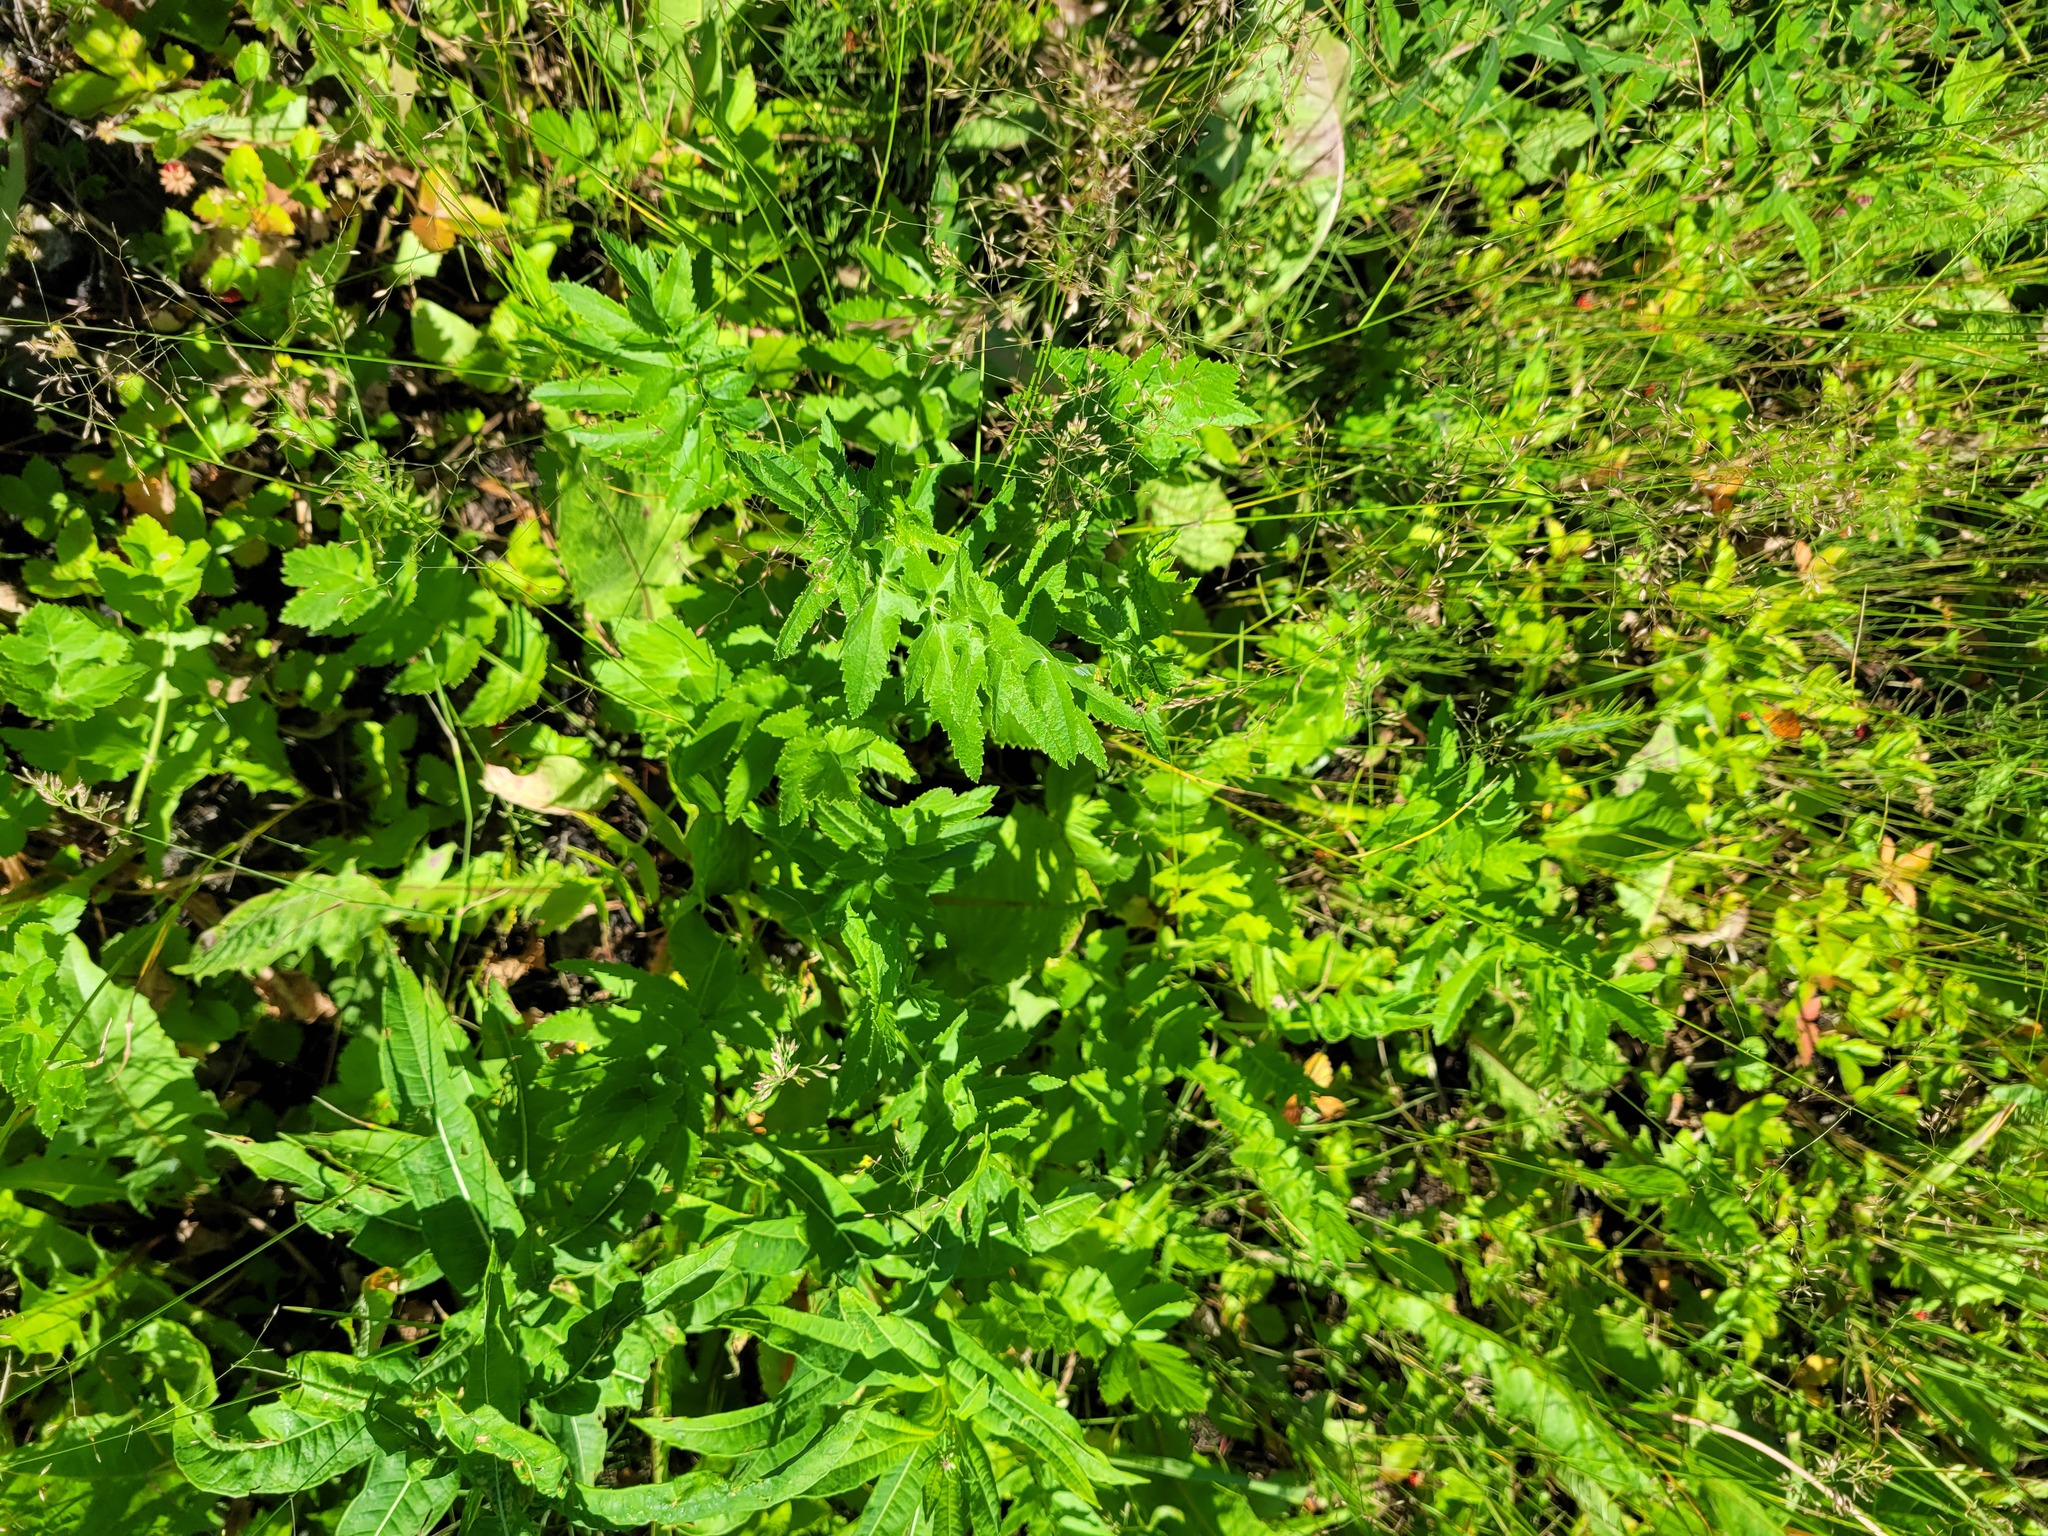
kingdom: Plantae
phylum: Tracheophyta
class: Magnoliopsida
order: Apiales
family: Apiaceae
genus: Pastinaca
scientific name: Pastinaca sativa
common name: Wild parsnip
